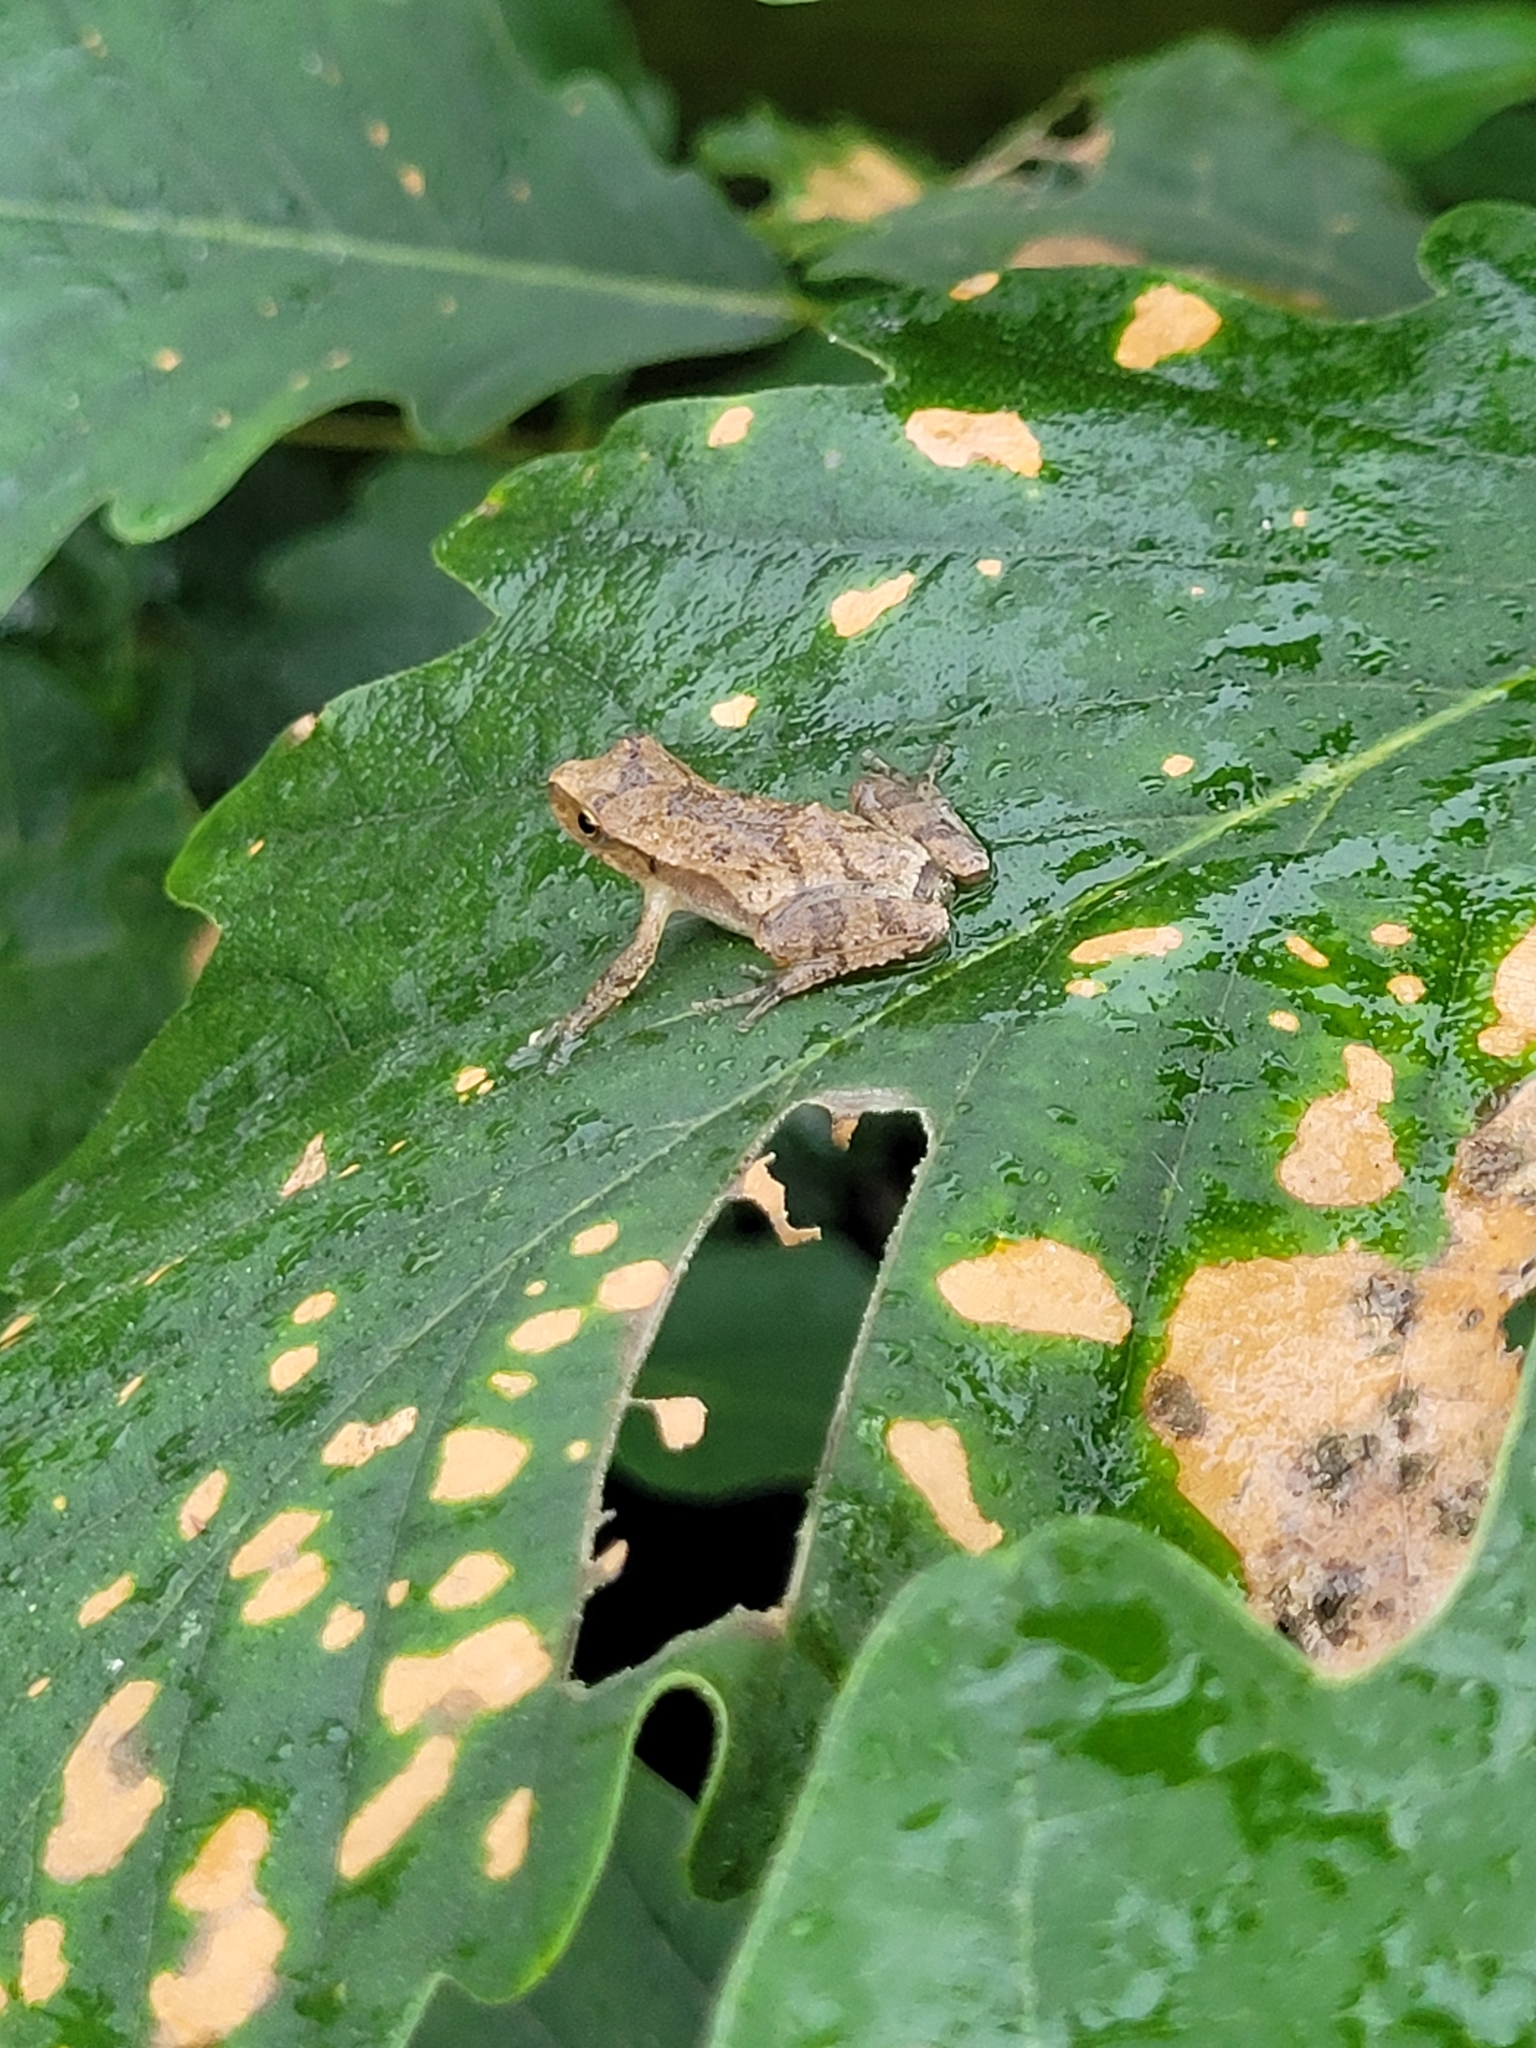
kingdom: Animalia
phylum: Chordata
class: Amphibia
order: Anura
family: Hylidae
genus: Pseudacris
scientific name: Pseudacris crucifer
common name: Spring peeper
